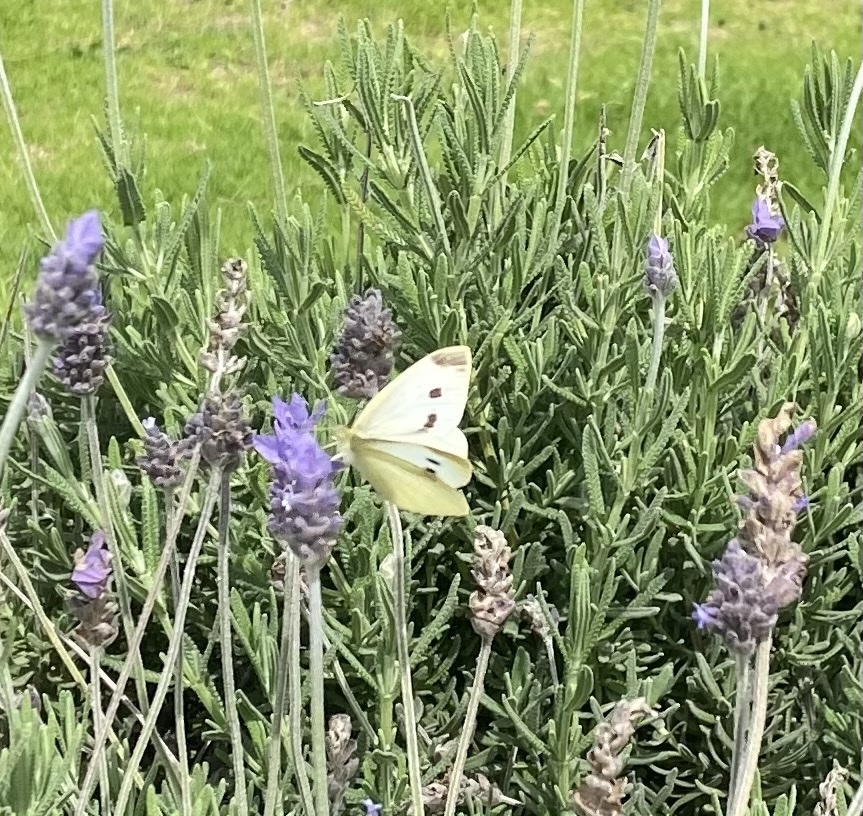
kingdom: Animalia
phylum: Arthropoda
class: Insecta
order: Lepidoptera
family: Pieridae
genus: Pieris
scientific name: Pieris rapae
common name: Small white
